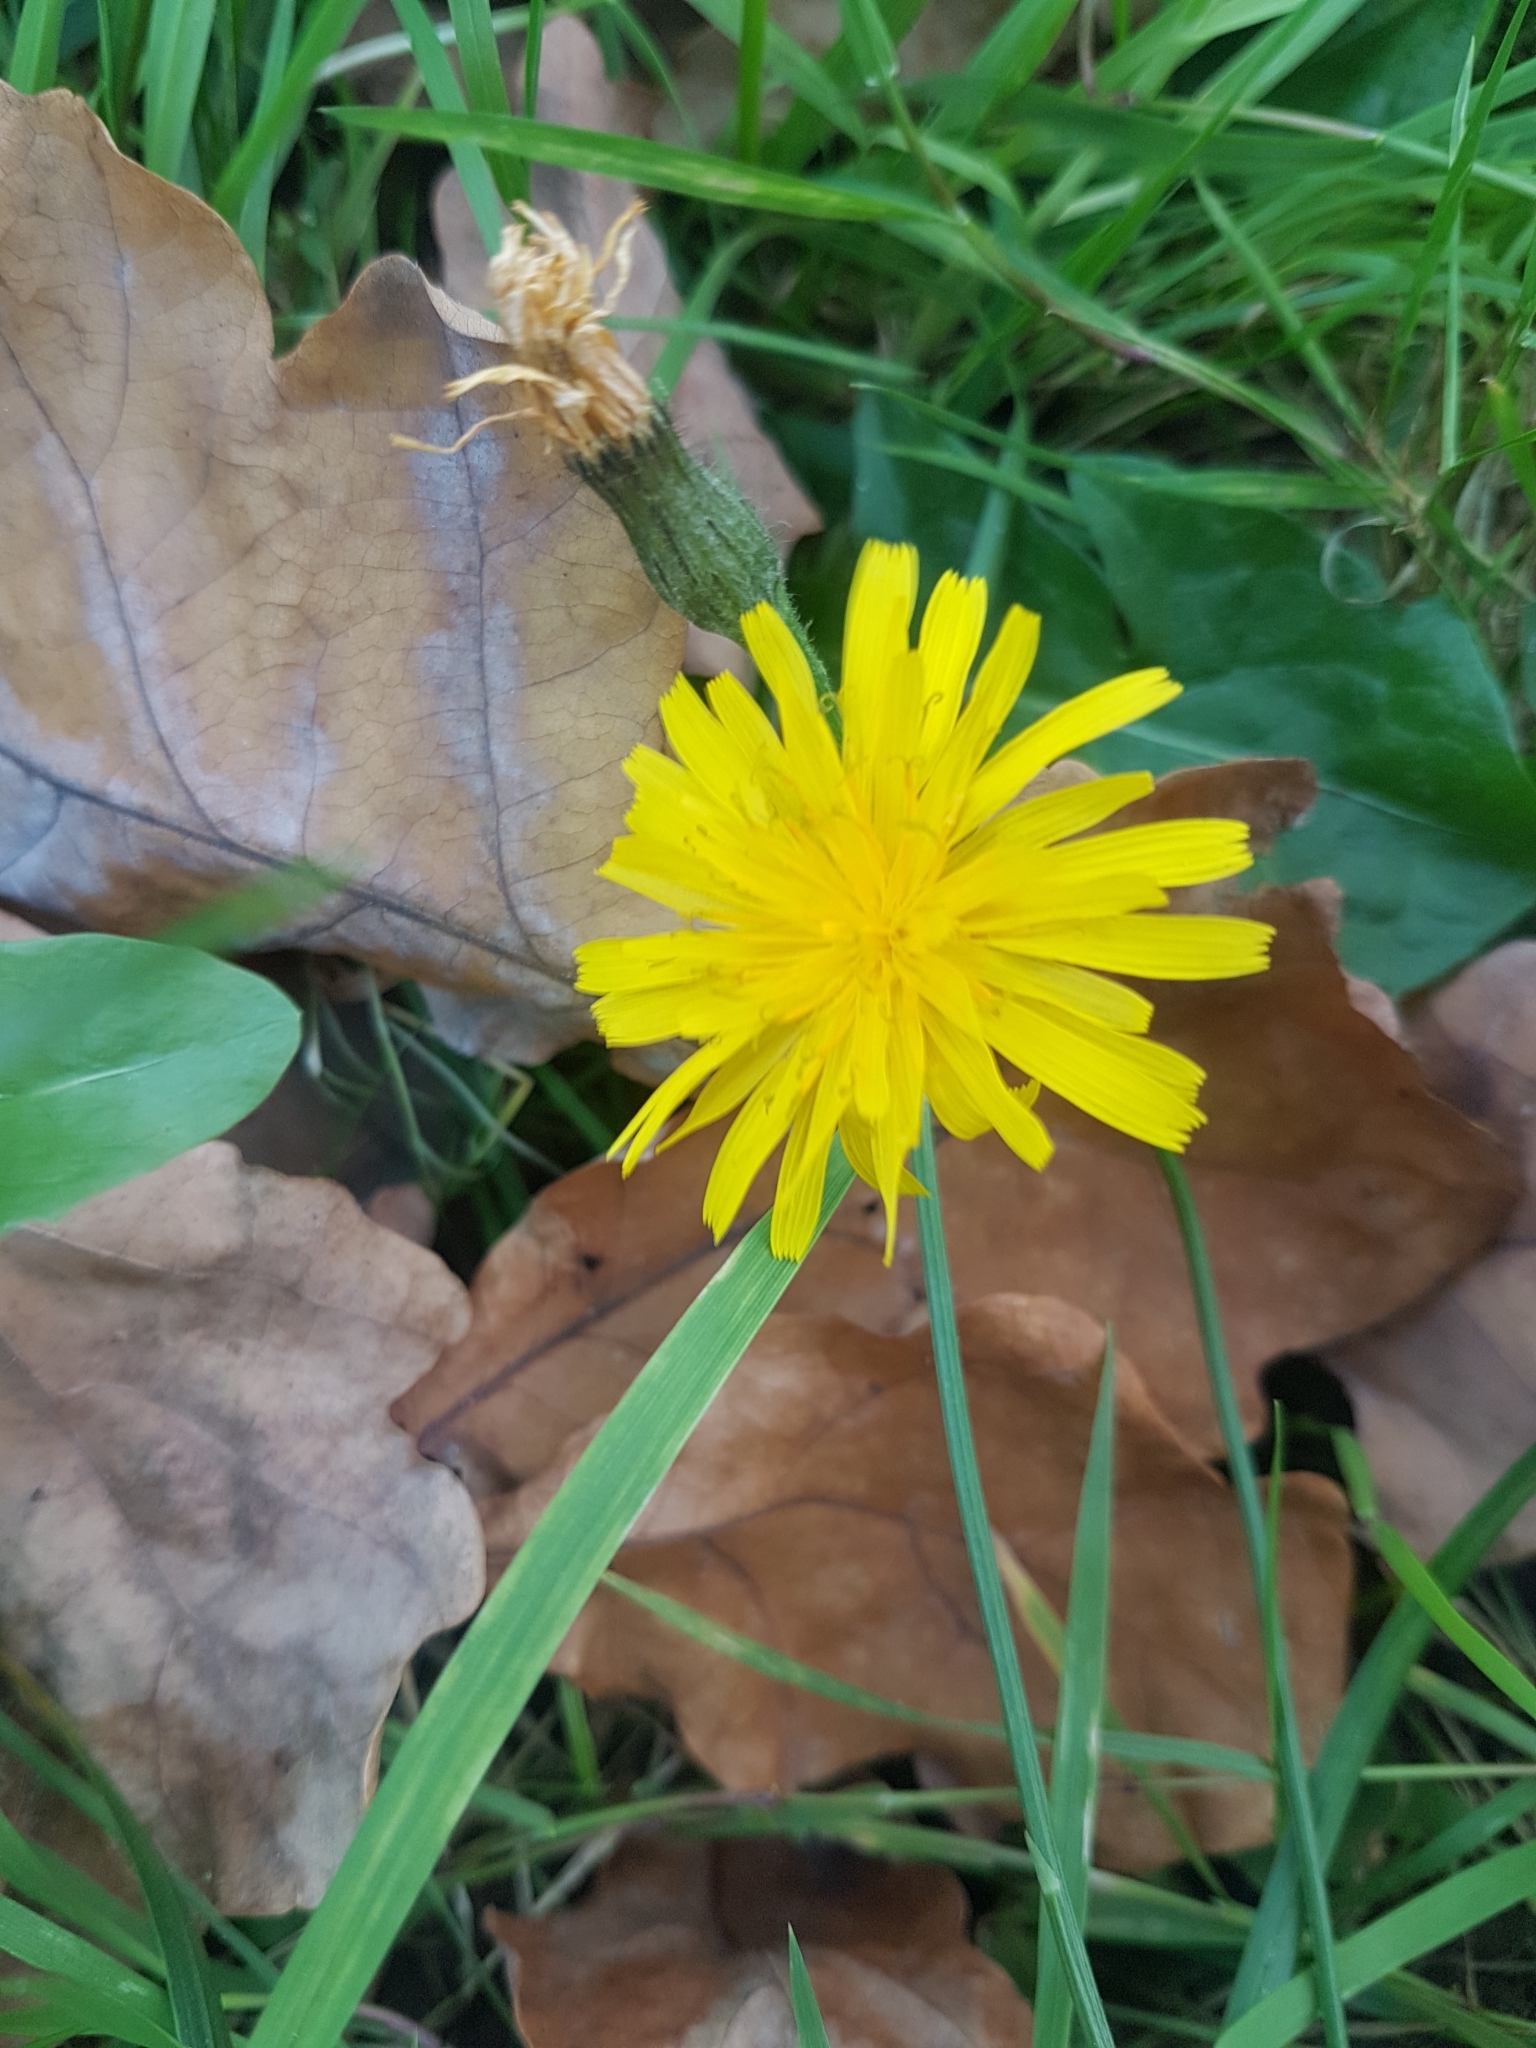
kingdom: Plantae
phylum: Tracheophyta
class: Magnoliopsida
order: Asterales
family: Asteraceae
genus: Scorzoneroides
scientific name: Scorzoneroides autumnalis
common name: Autumn hawkbit
